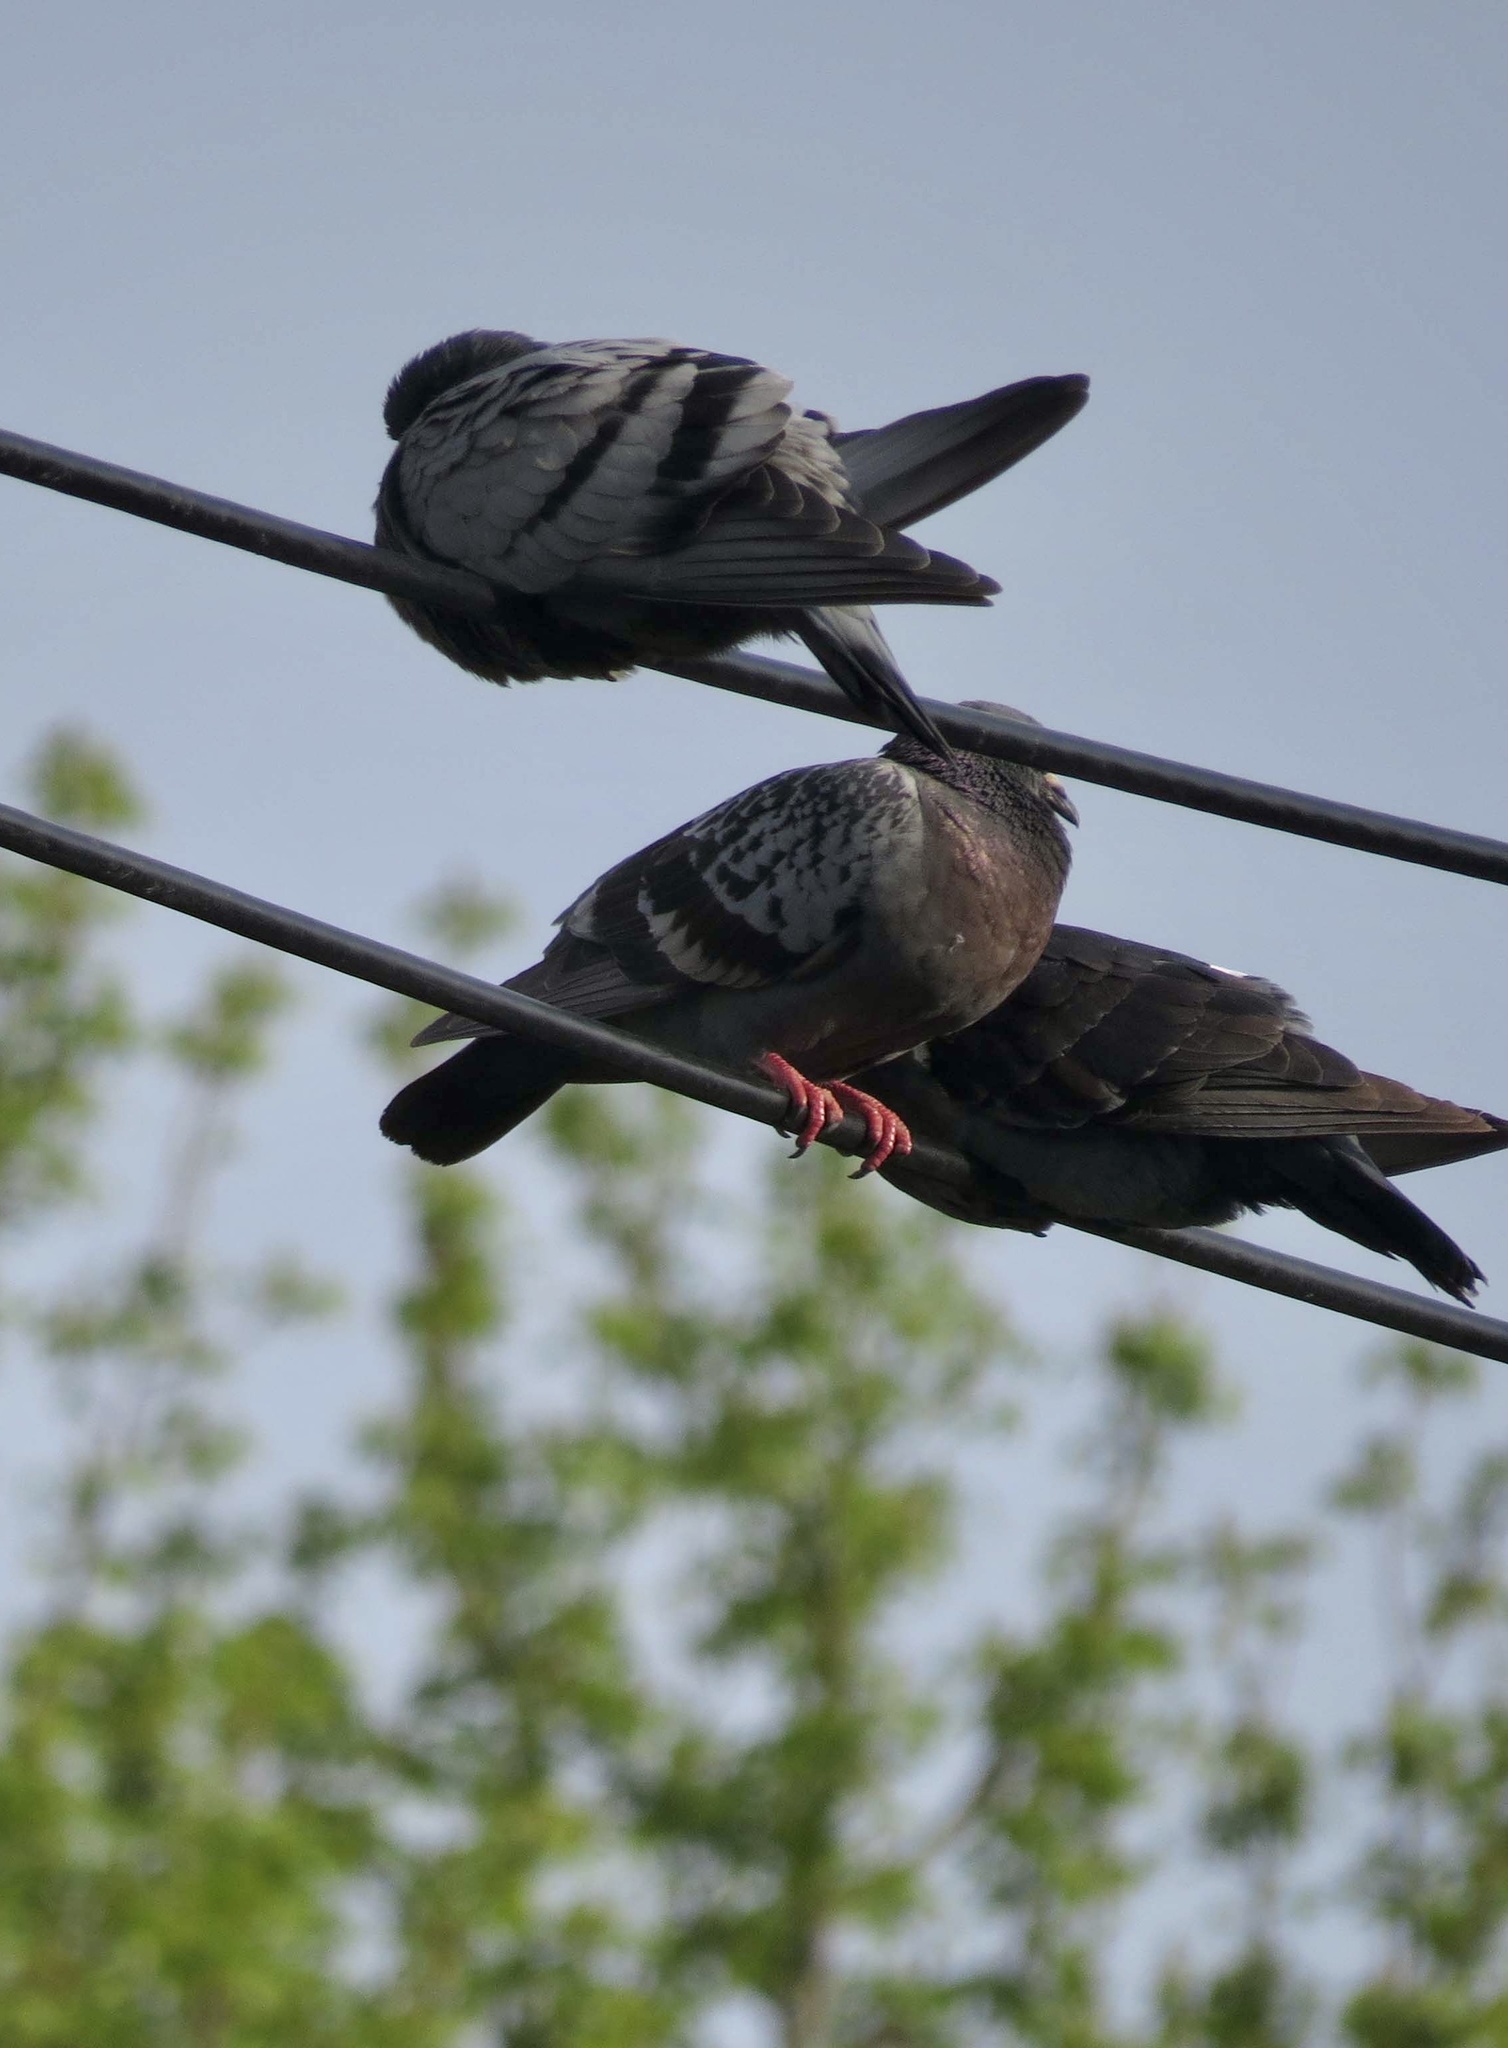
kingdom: Animalia
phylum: Chordata
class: Aves
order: Columbiformes
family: Columbidae
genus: Columba
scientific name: Columba livia
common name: Rock pigeon
